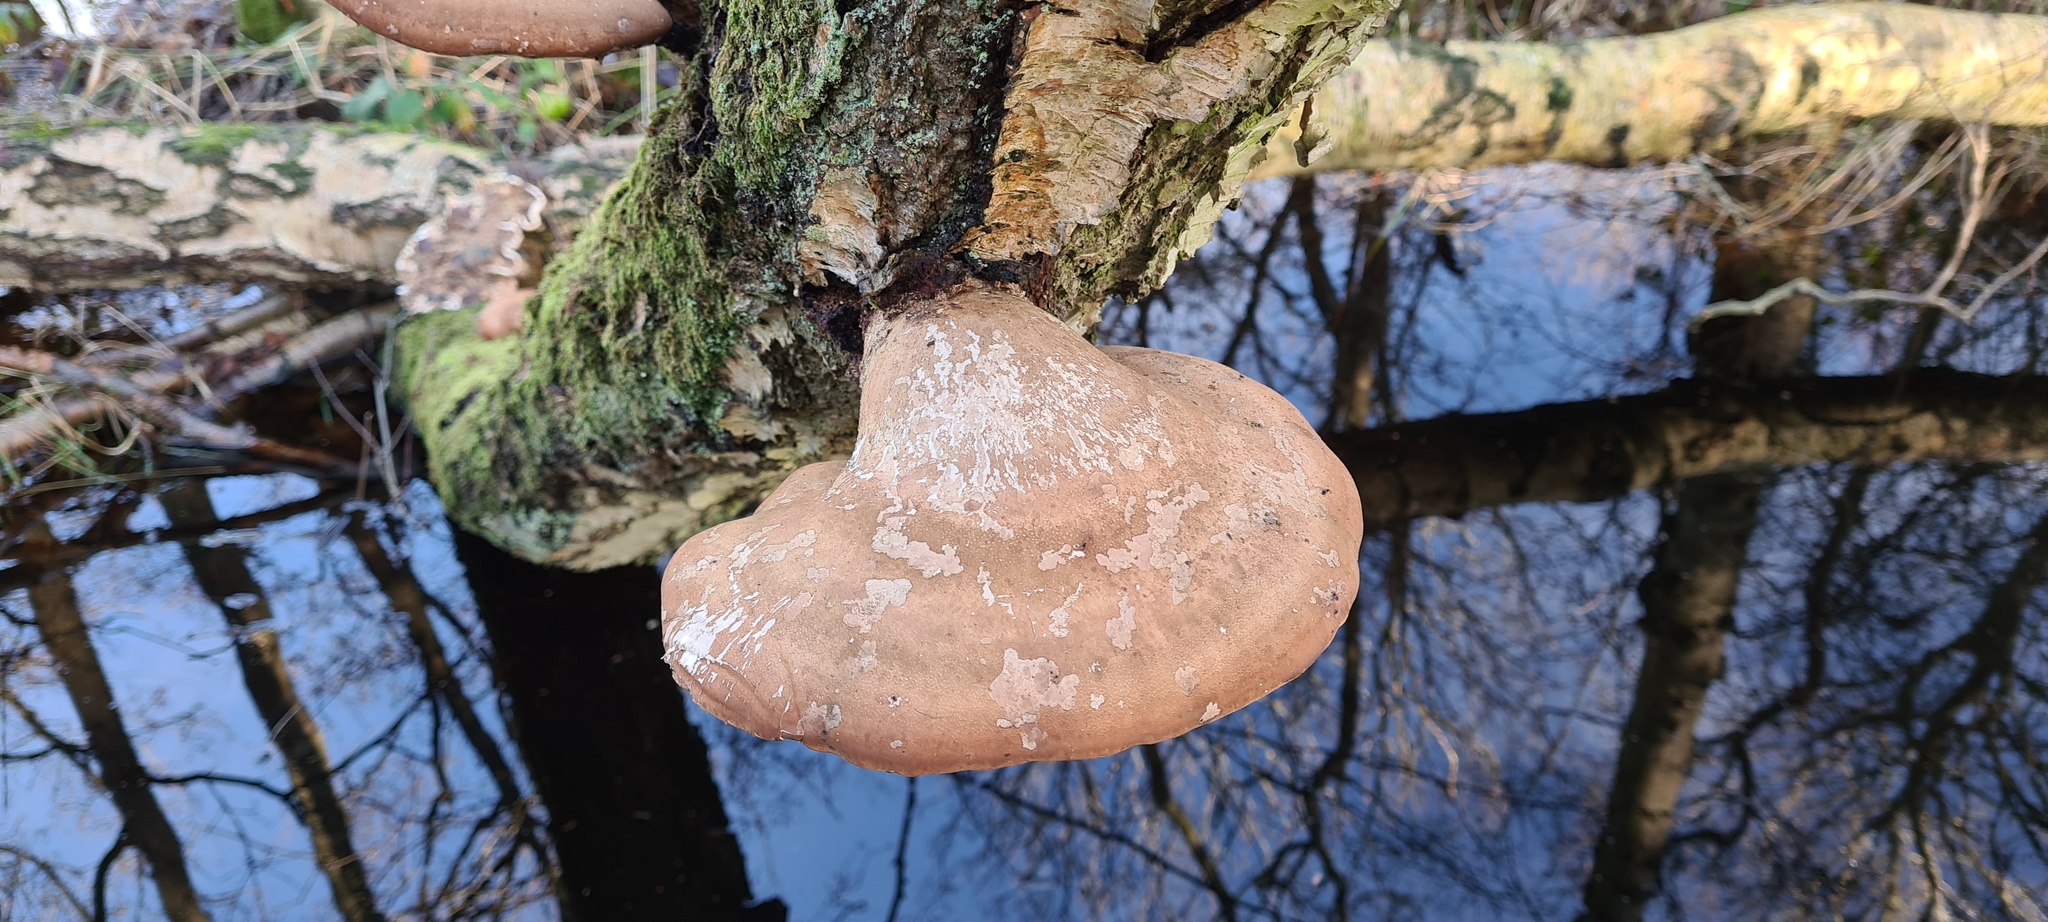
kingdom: Fungi
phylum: Basidiomycota
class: Agaricomycetes
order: Polyporales
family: Fomitopsidaceae
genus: Fomitopsis
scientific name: Fomitopsis betulina
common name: Birch polypore
